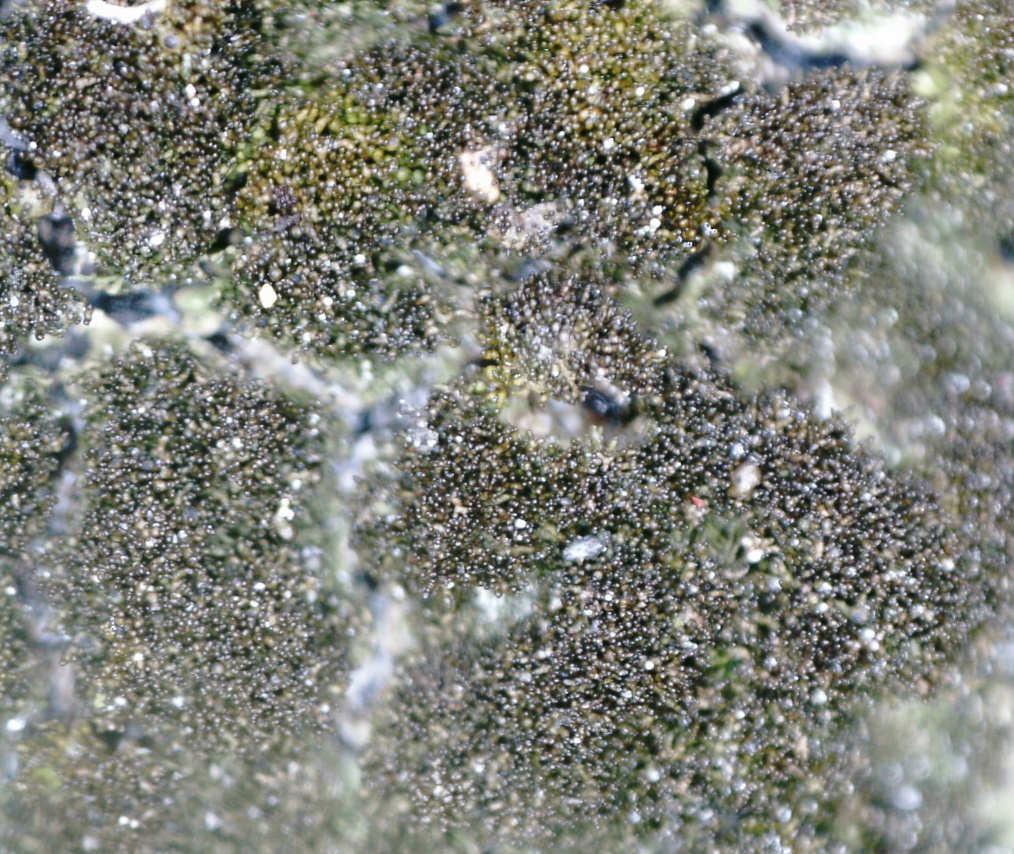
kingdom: Fungi
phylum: Ascomycota
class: Lecanoromycetes
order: Lecanorales
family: Parmeliaceae
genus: Melanelixia
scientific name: Melanelixia fuliginosa
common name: Shiny camouflage lichen
